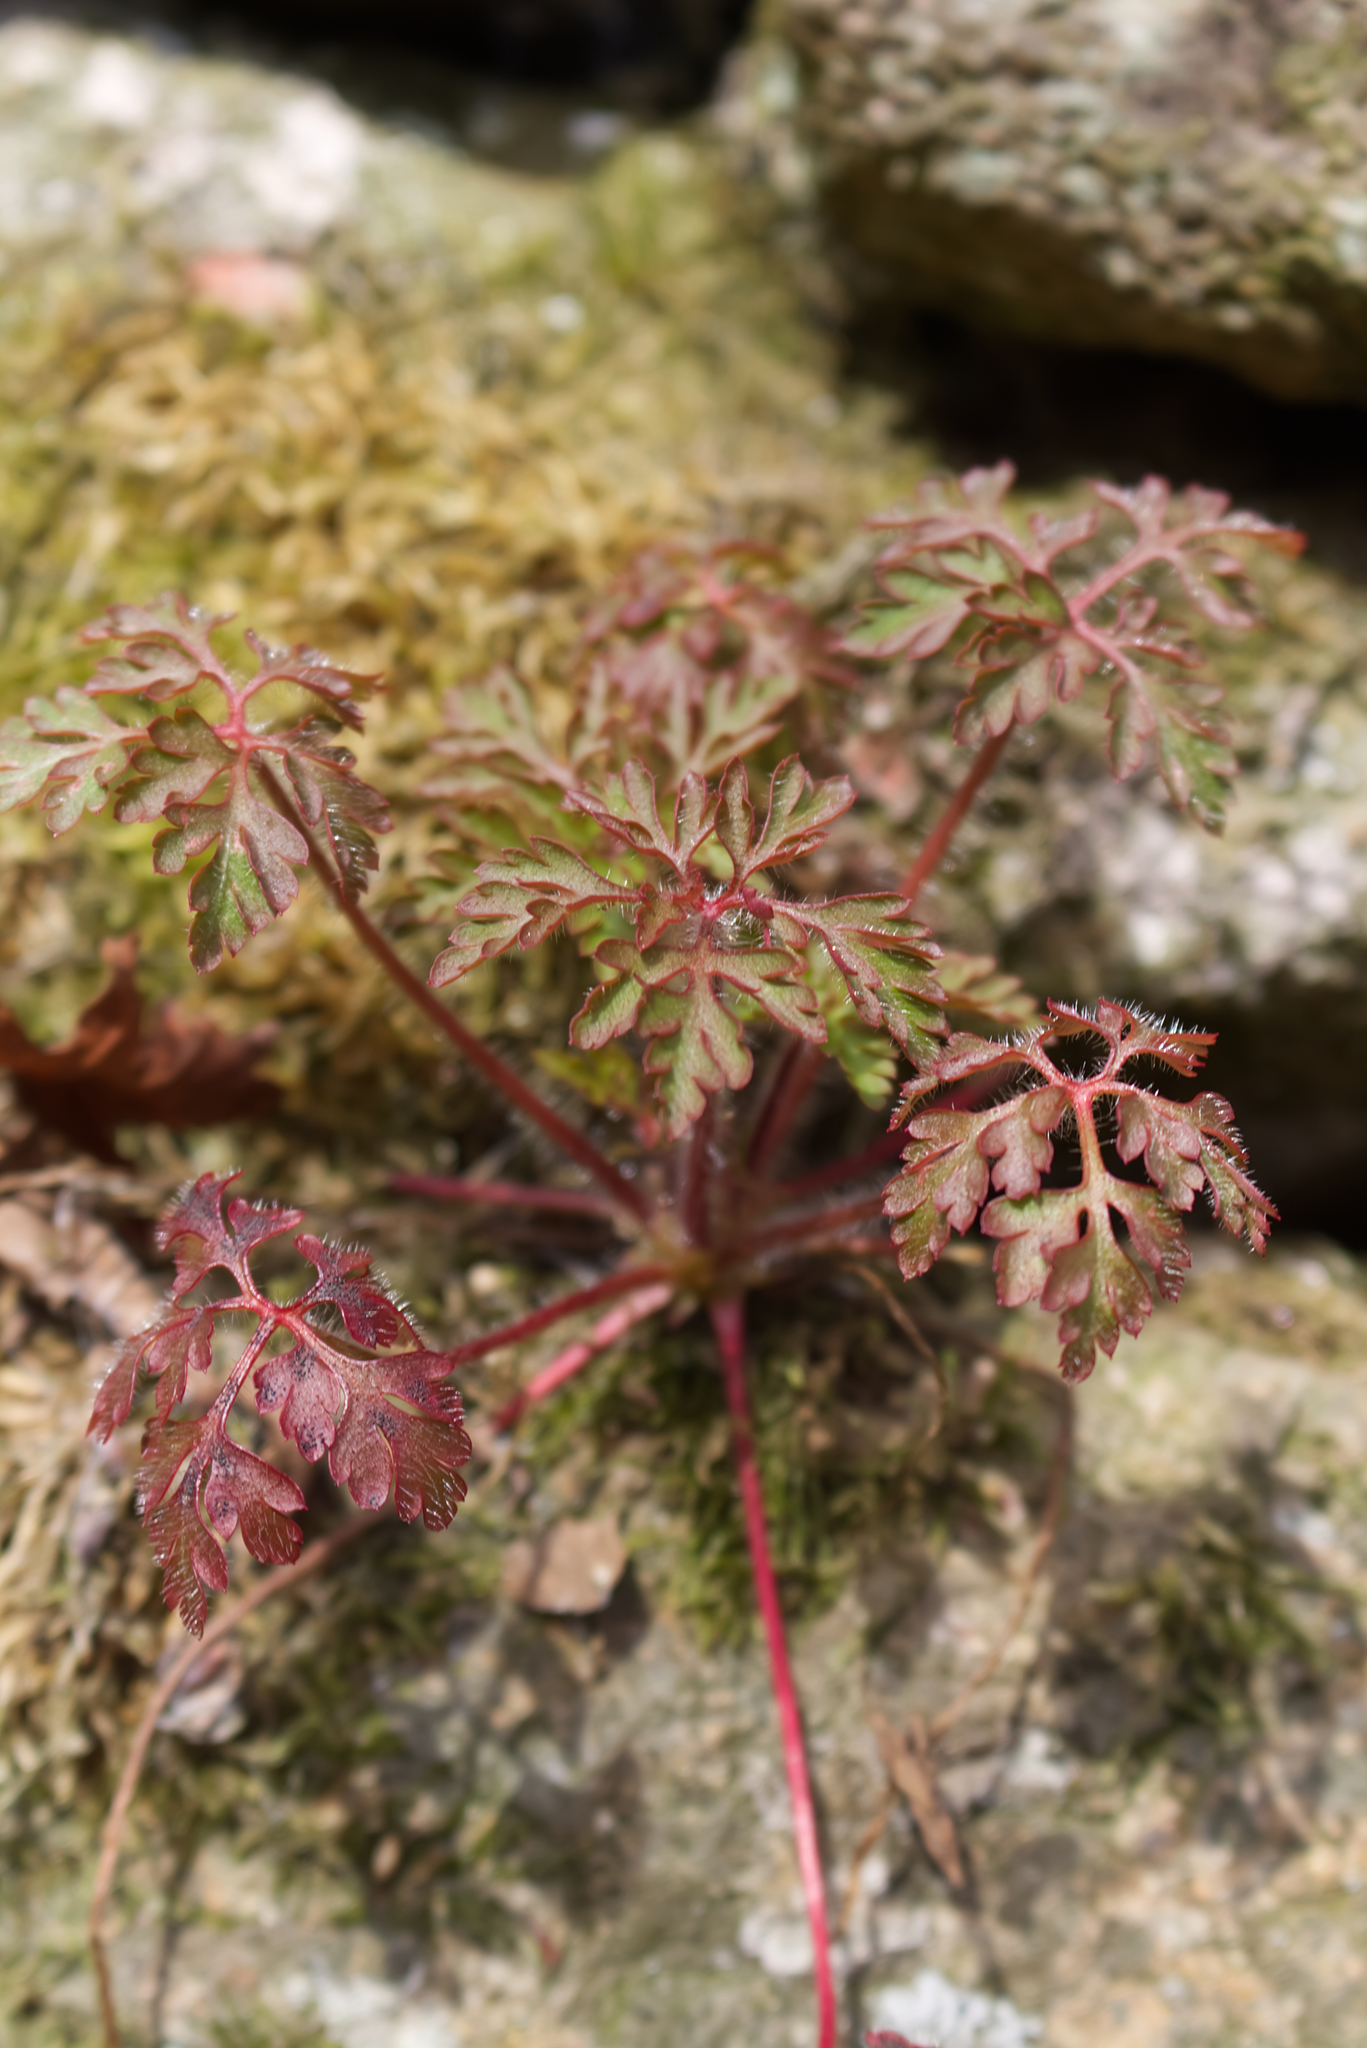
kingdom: Plantae
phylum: Tracheophyta
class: Magnoliopsida
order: Geraniales
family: Geraniaceae
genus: Geranium
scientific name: Geranium robertianum
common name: Herb-robert
